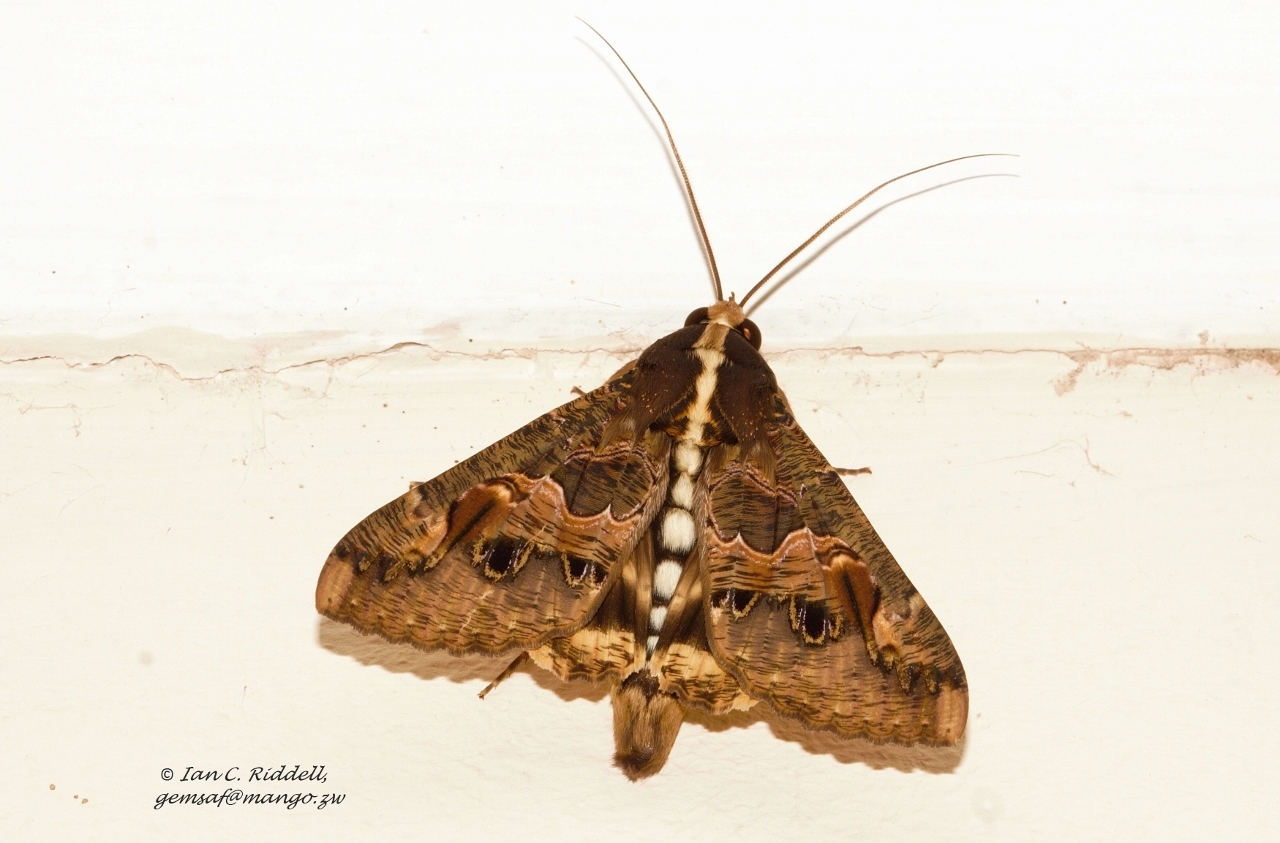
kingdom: Animalia
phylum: Arthropoda
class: Insecta
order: Lepidoptera
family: Erebidae
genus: Sphingomorpha
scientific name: Sphingomorpha chlorea
